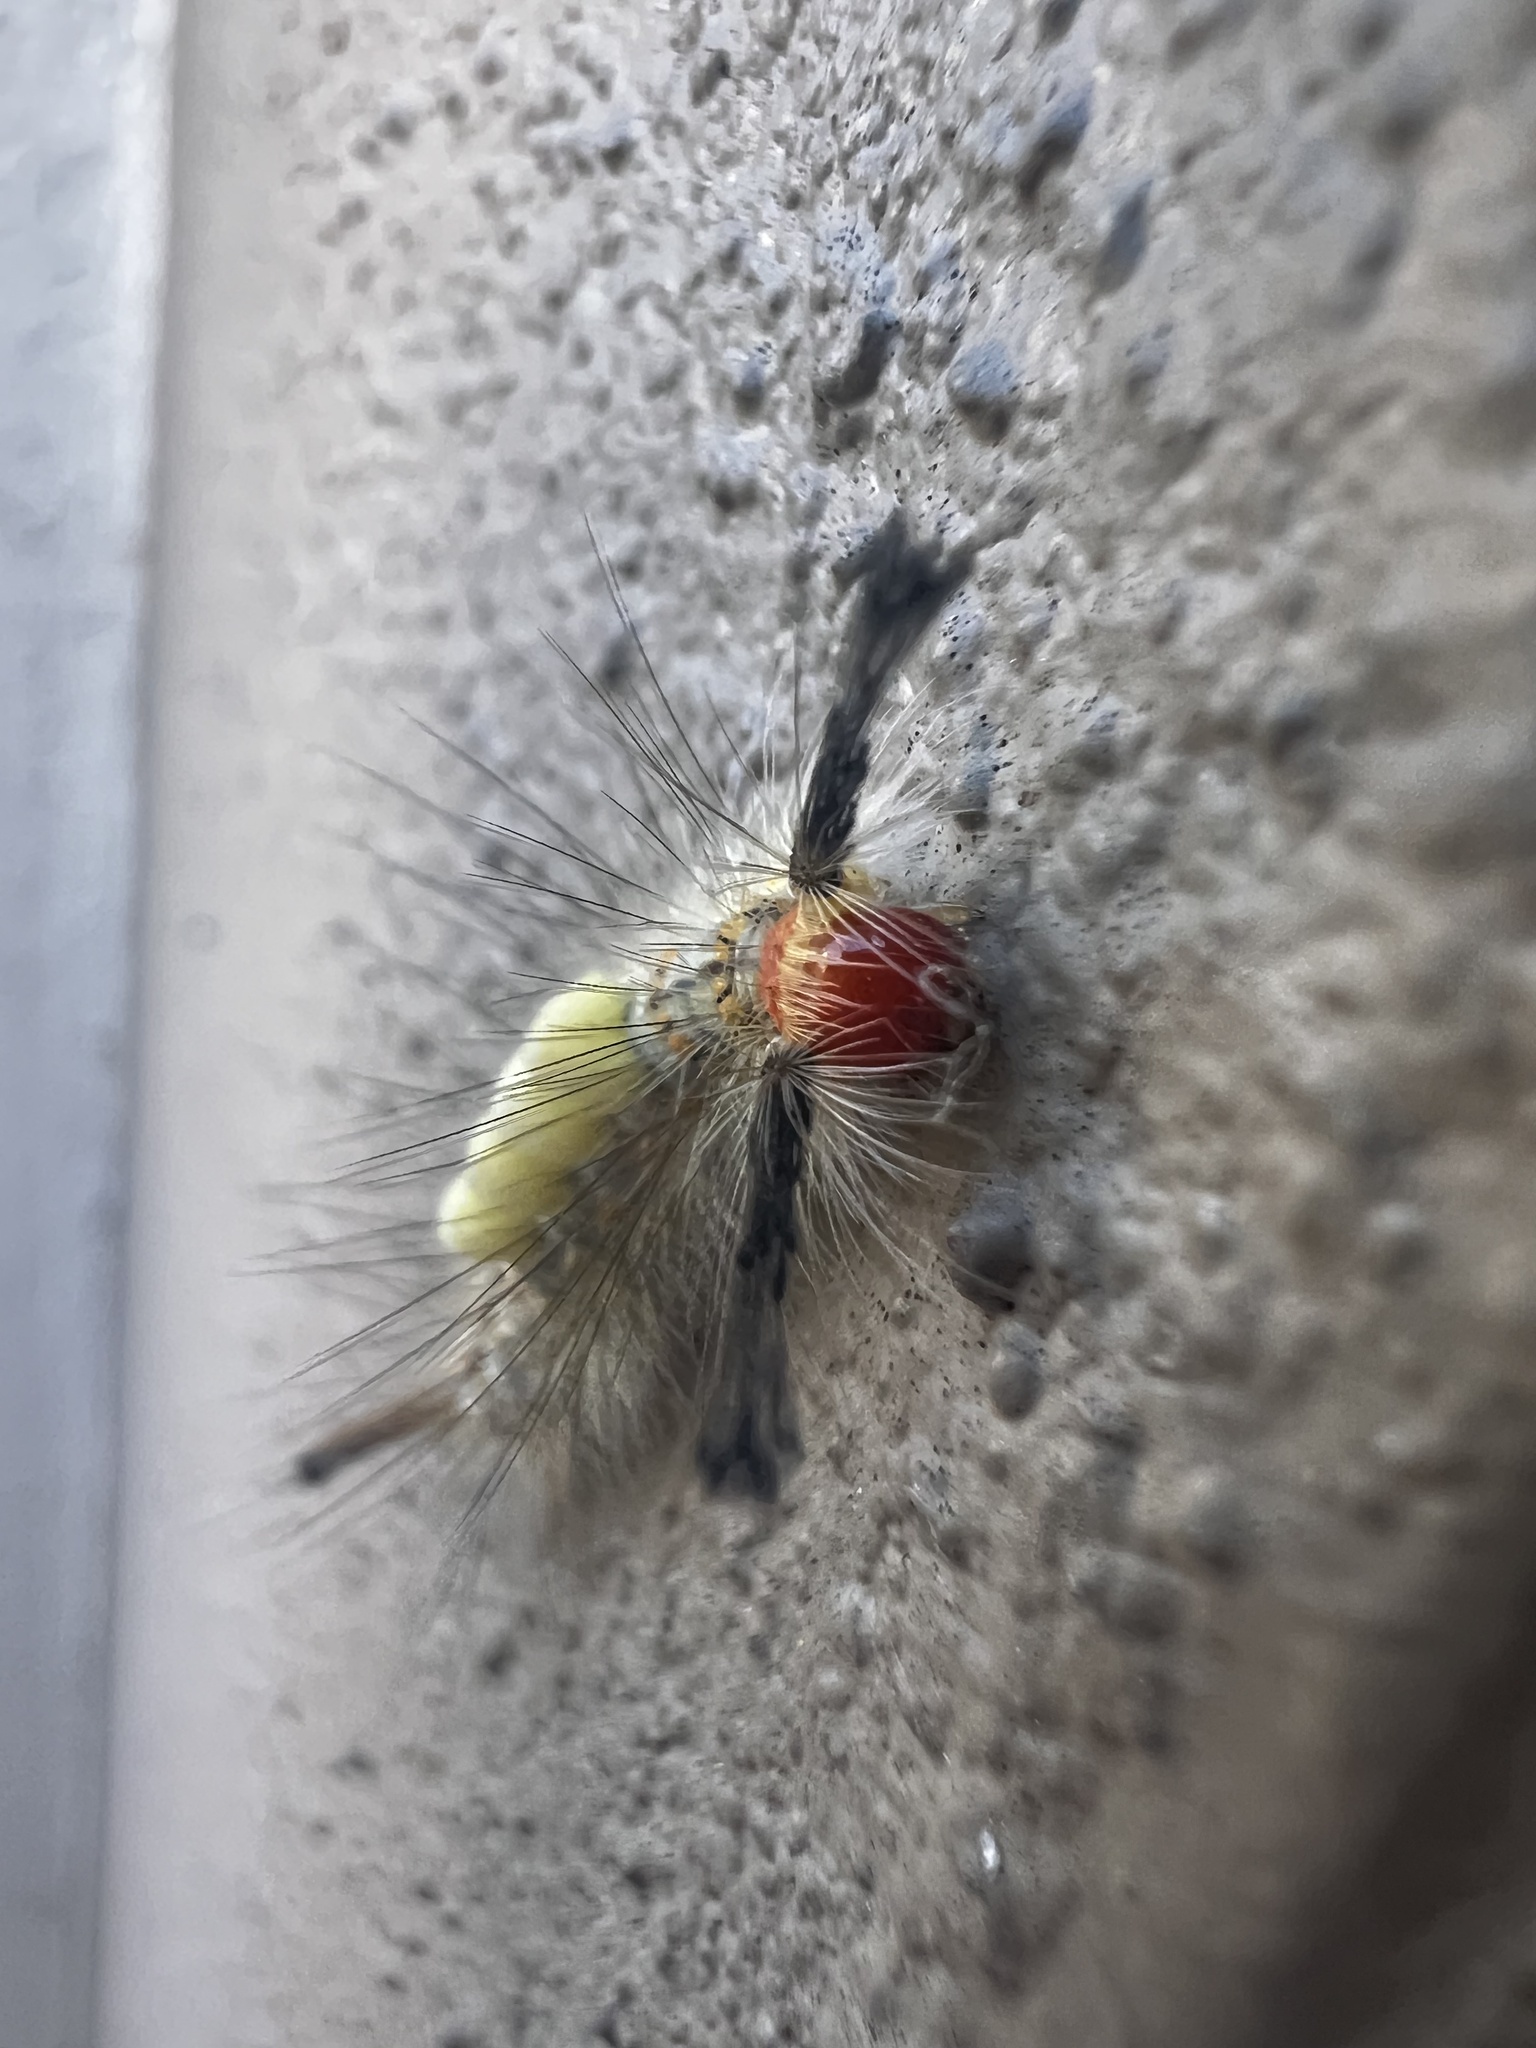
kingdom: Animalia
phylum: Arthropoda
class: Insecta
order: Lepidoptera
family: Erebidae
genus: Orgyia
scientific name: Orgyia detrita
